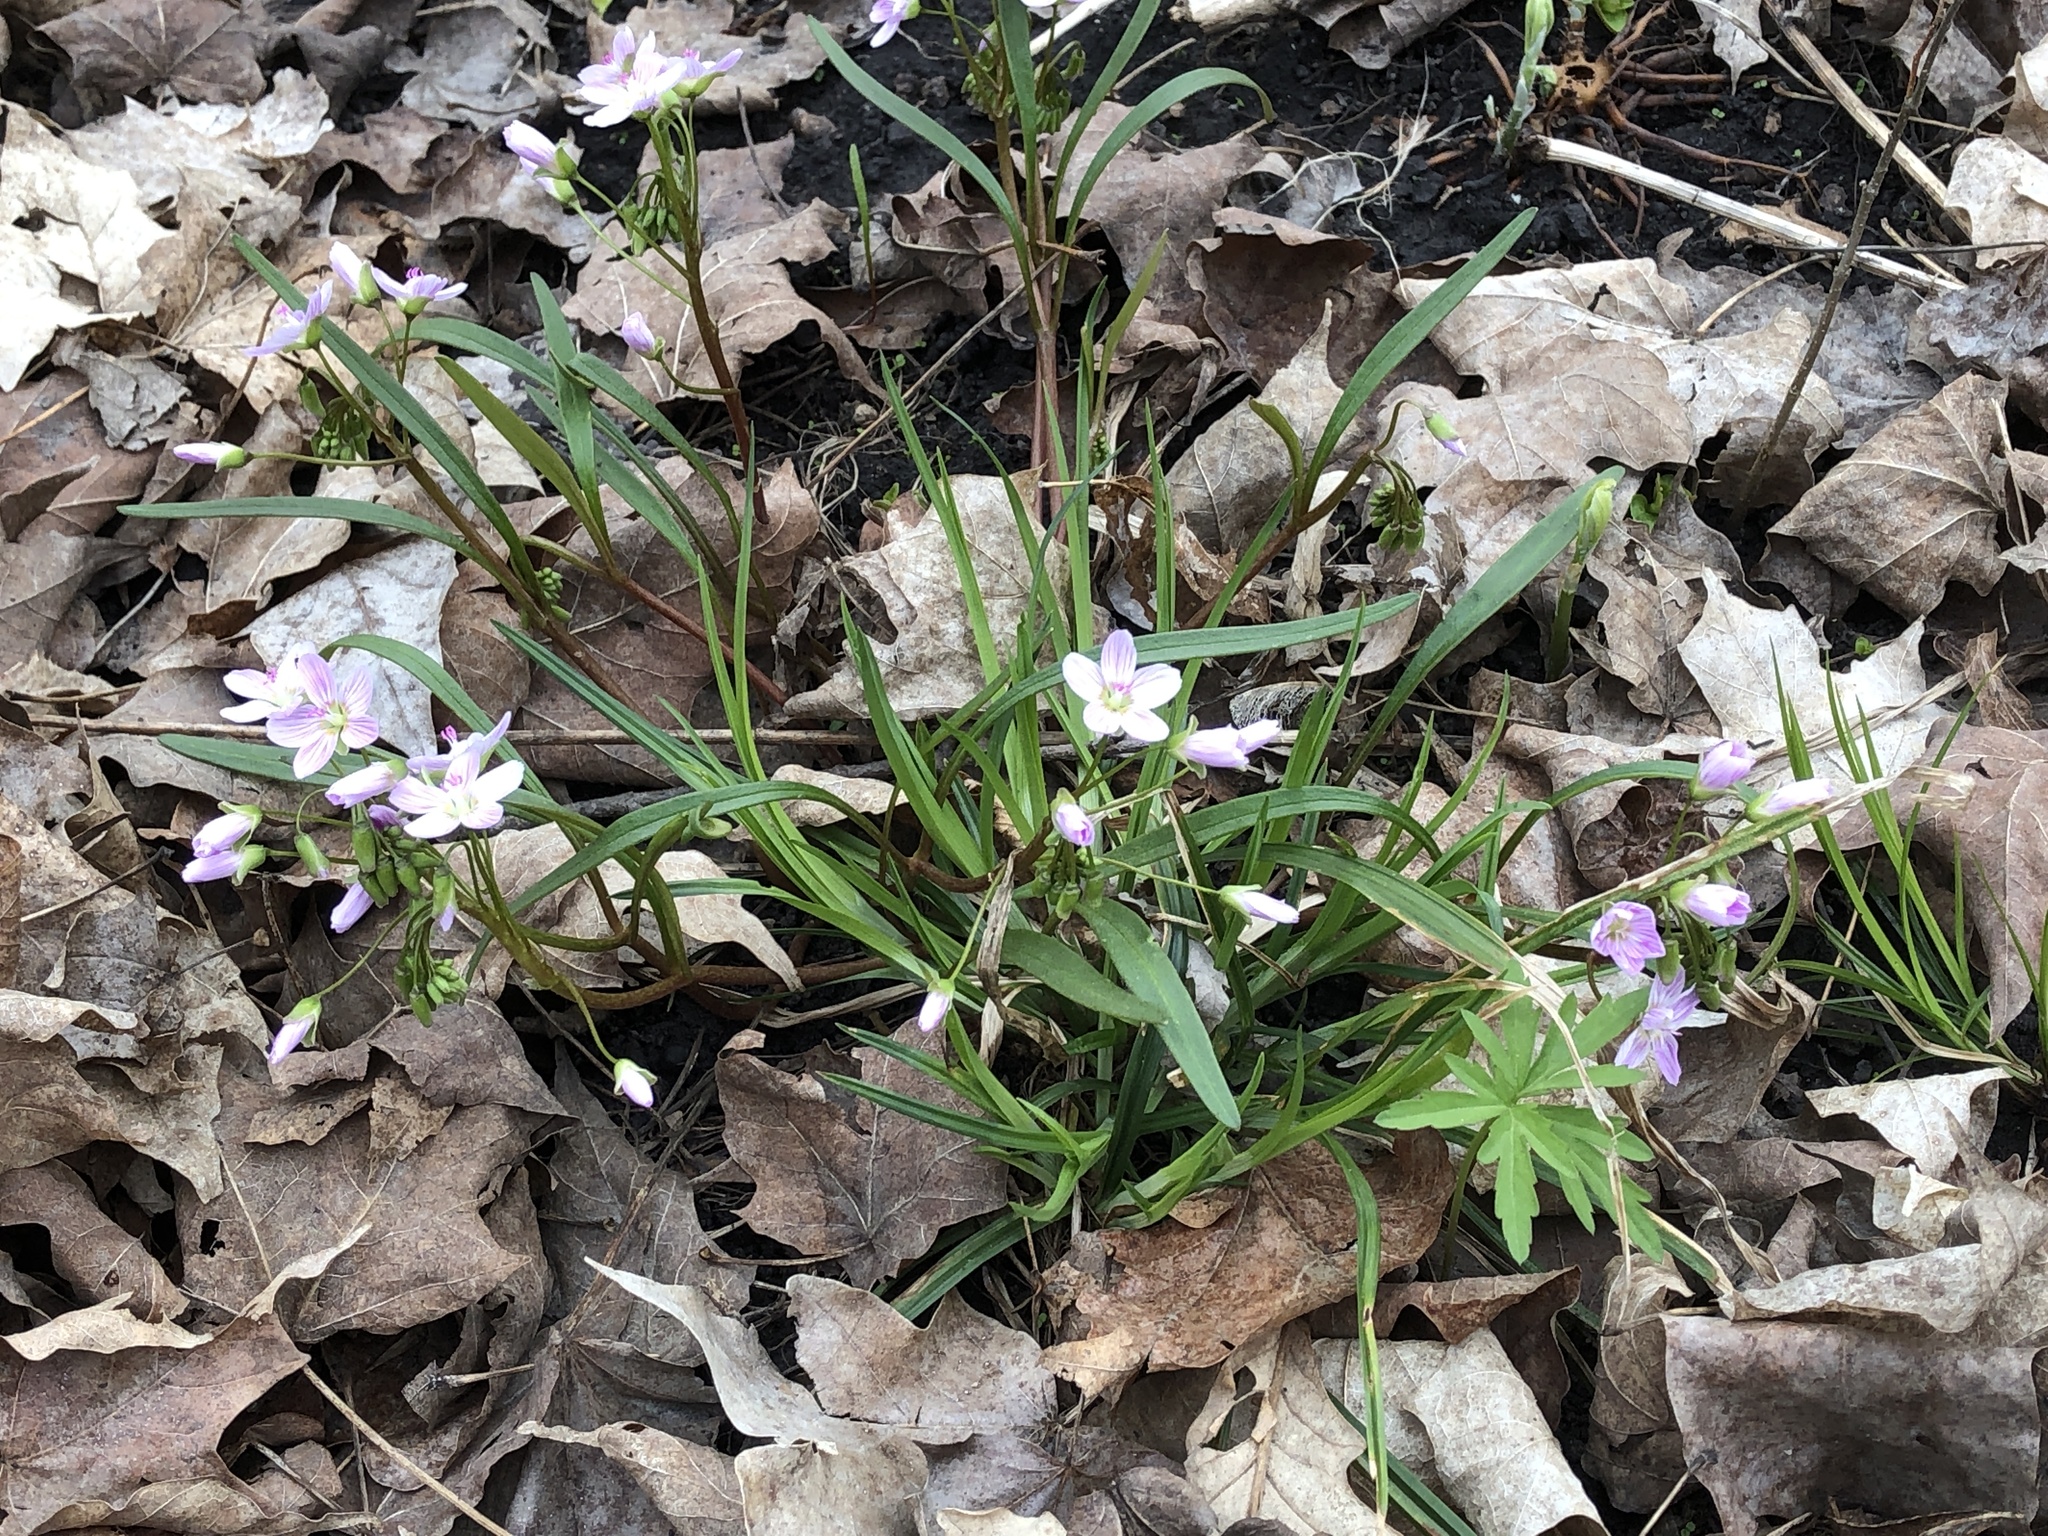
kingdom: Plantae
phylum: Tracheophyta
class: Magnoliopsida
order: Caryophyllales
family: Montiaceae
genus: Claytonia
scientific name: Claytonia virginica
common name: Virginia springbeauty
